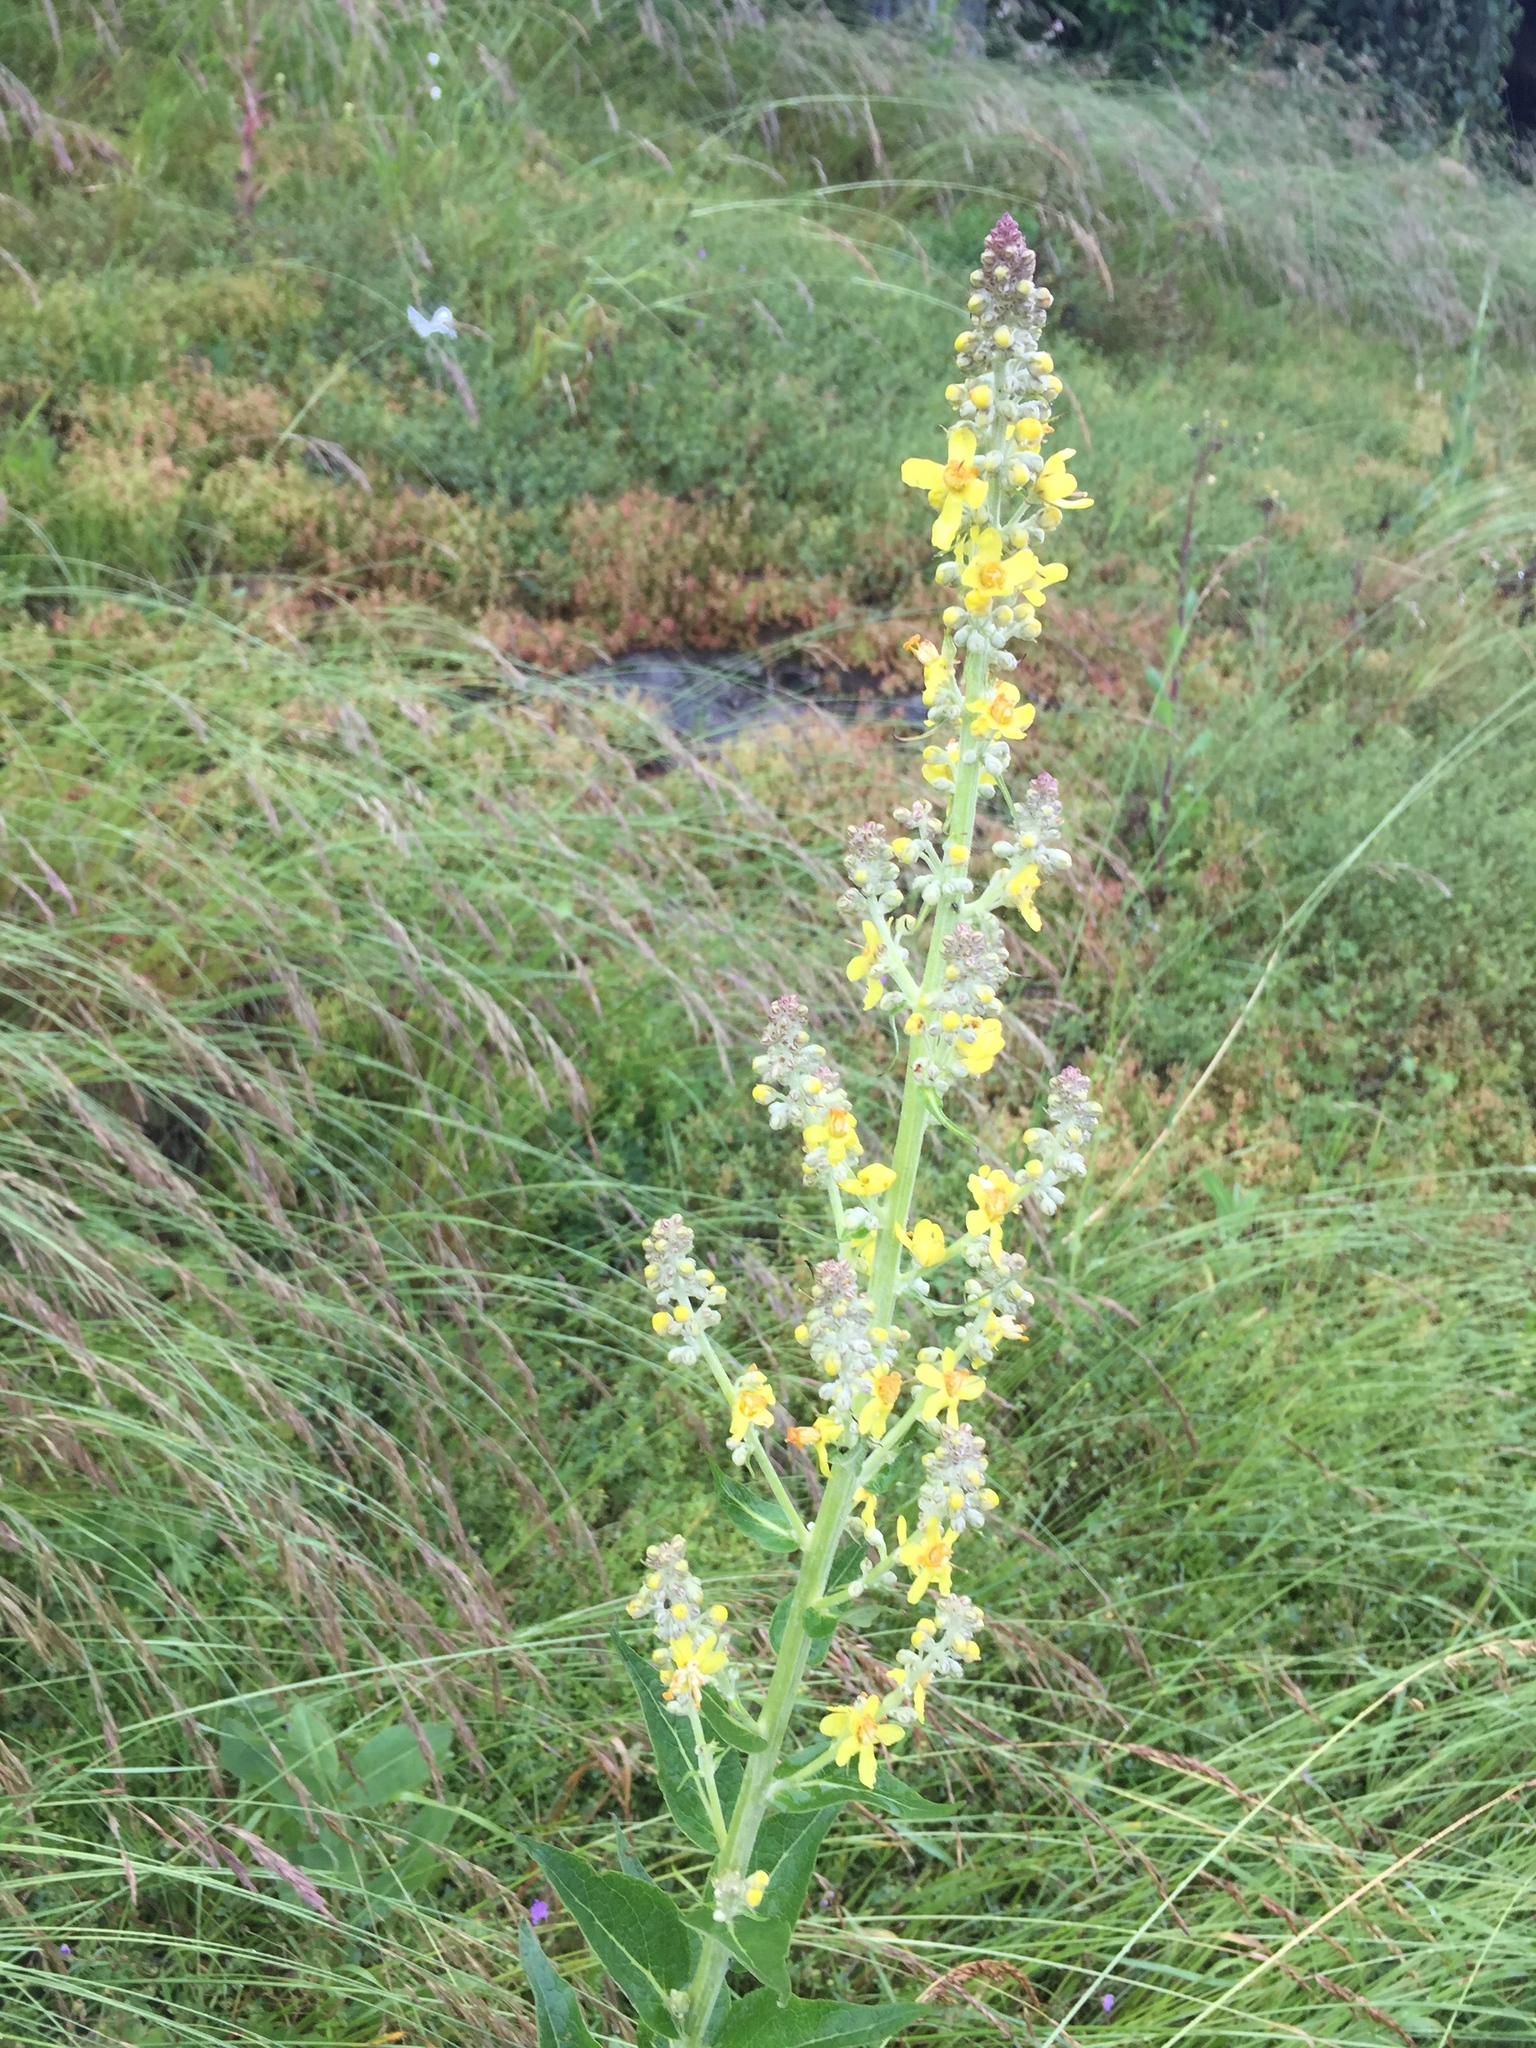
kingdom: Plantae
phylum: Tracheophyta
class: Magnoliopsida
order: Lamiales
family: Scrophulariaceae
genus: Verbascum
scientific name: Verbascum lychnitis
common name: White mullein
